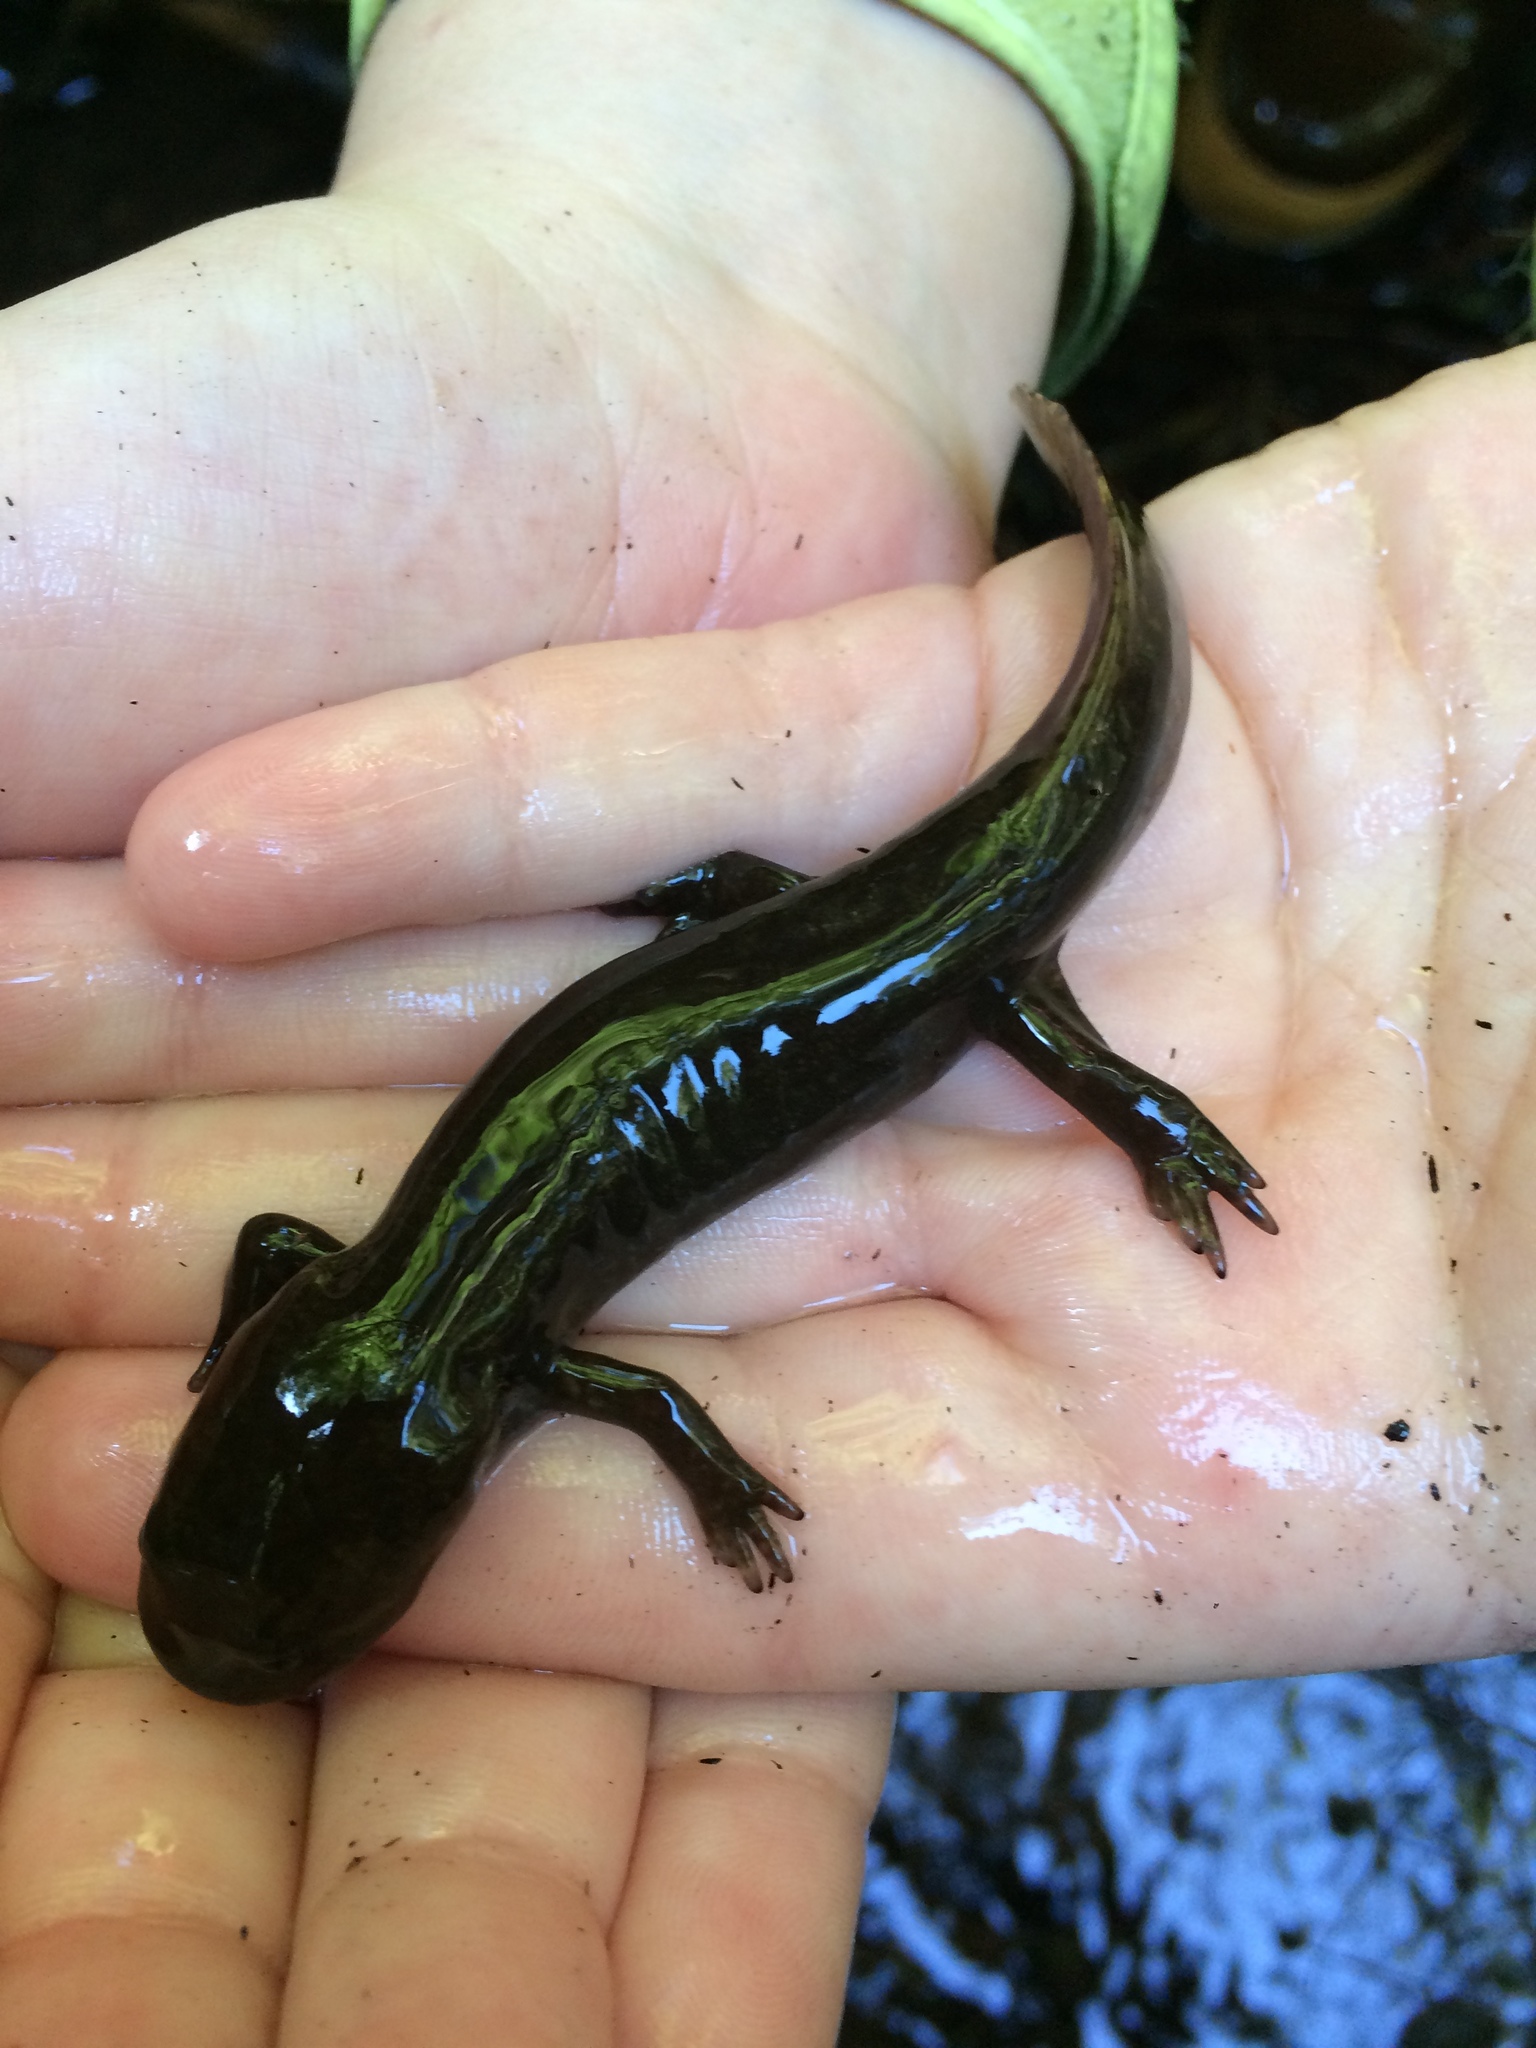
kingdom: Animalia
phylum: Chordata
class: Amphibia
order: Caudata
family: Ambystomatidae
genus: Dicamptodon
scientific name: Dicamptodon tenebrosus
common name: Coastal giant salamander
